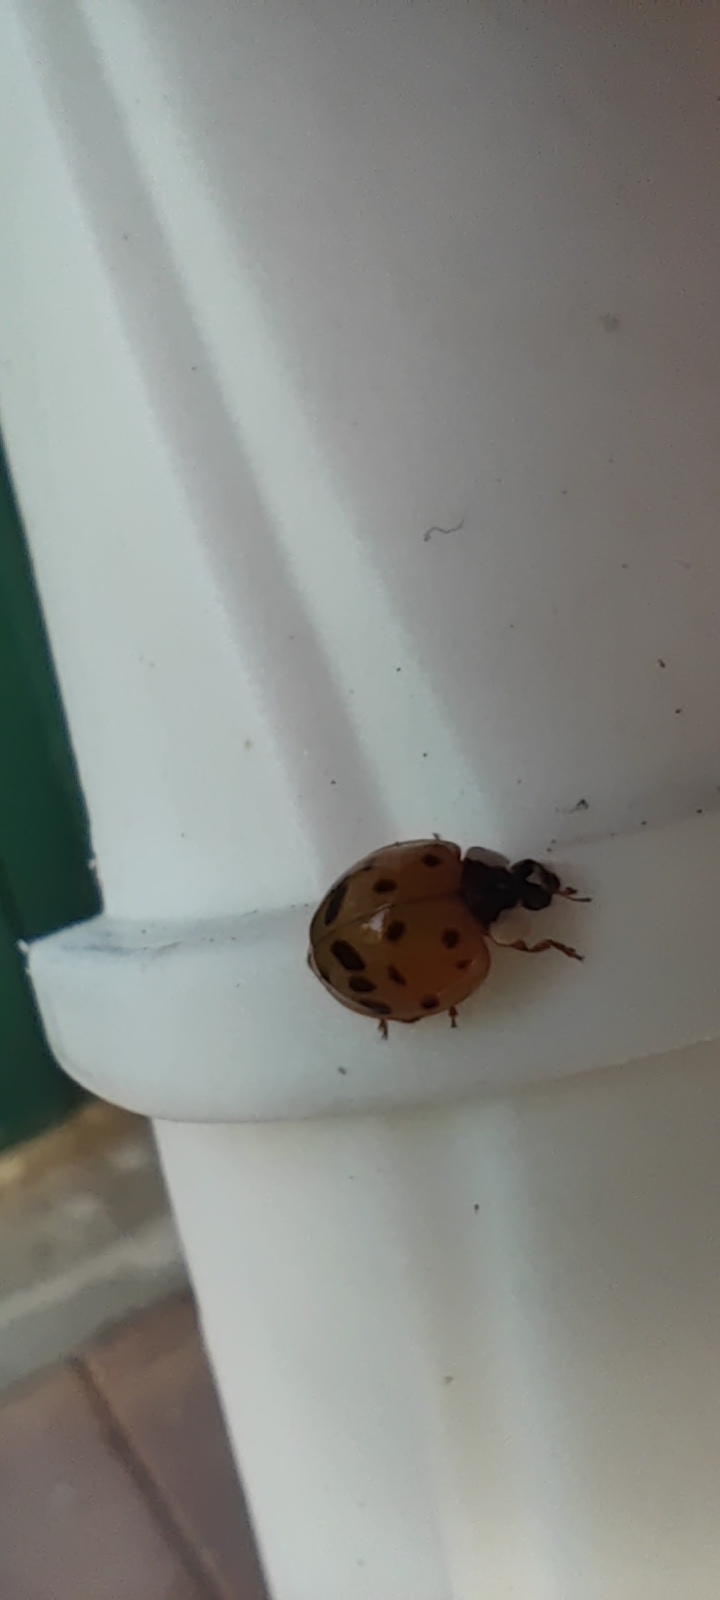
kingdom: Animalia
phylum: Arthropoda
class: Insecta
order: Coleoptera
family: Coccinellidae
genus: Harmonia
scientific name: Harmonia axyridis
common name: Harlequin ladybird
